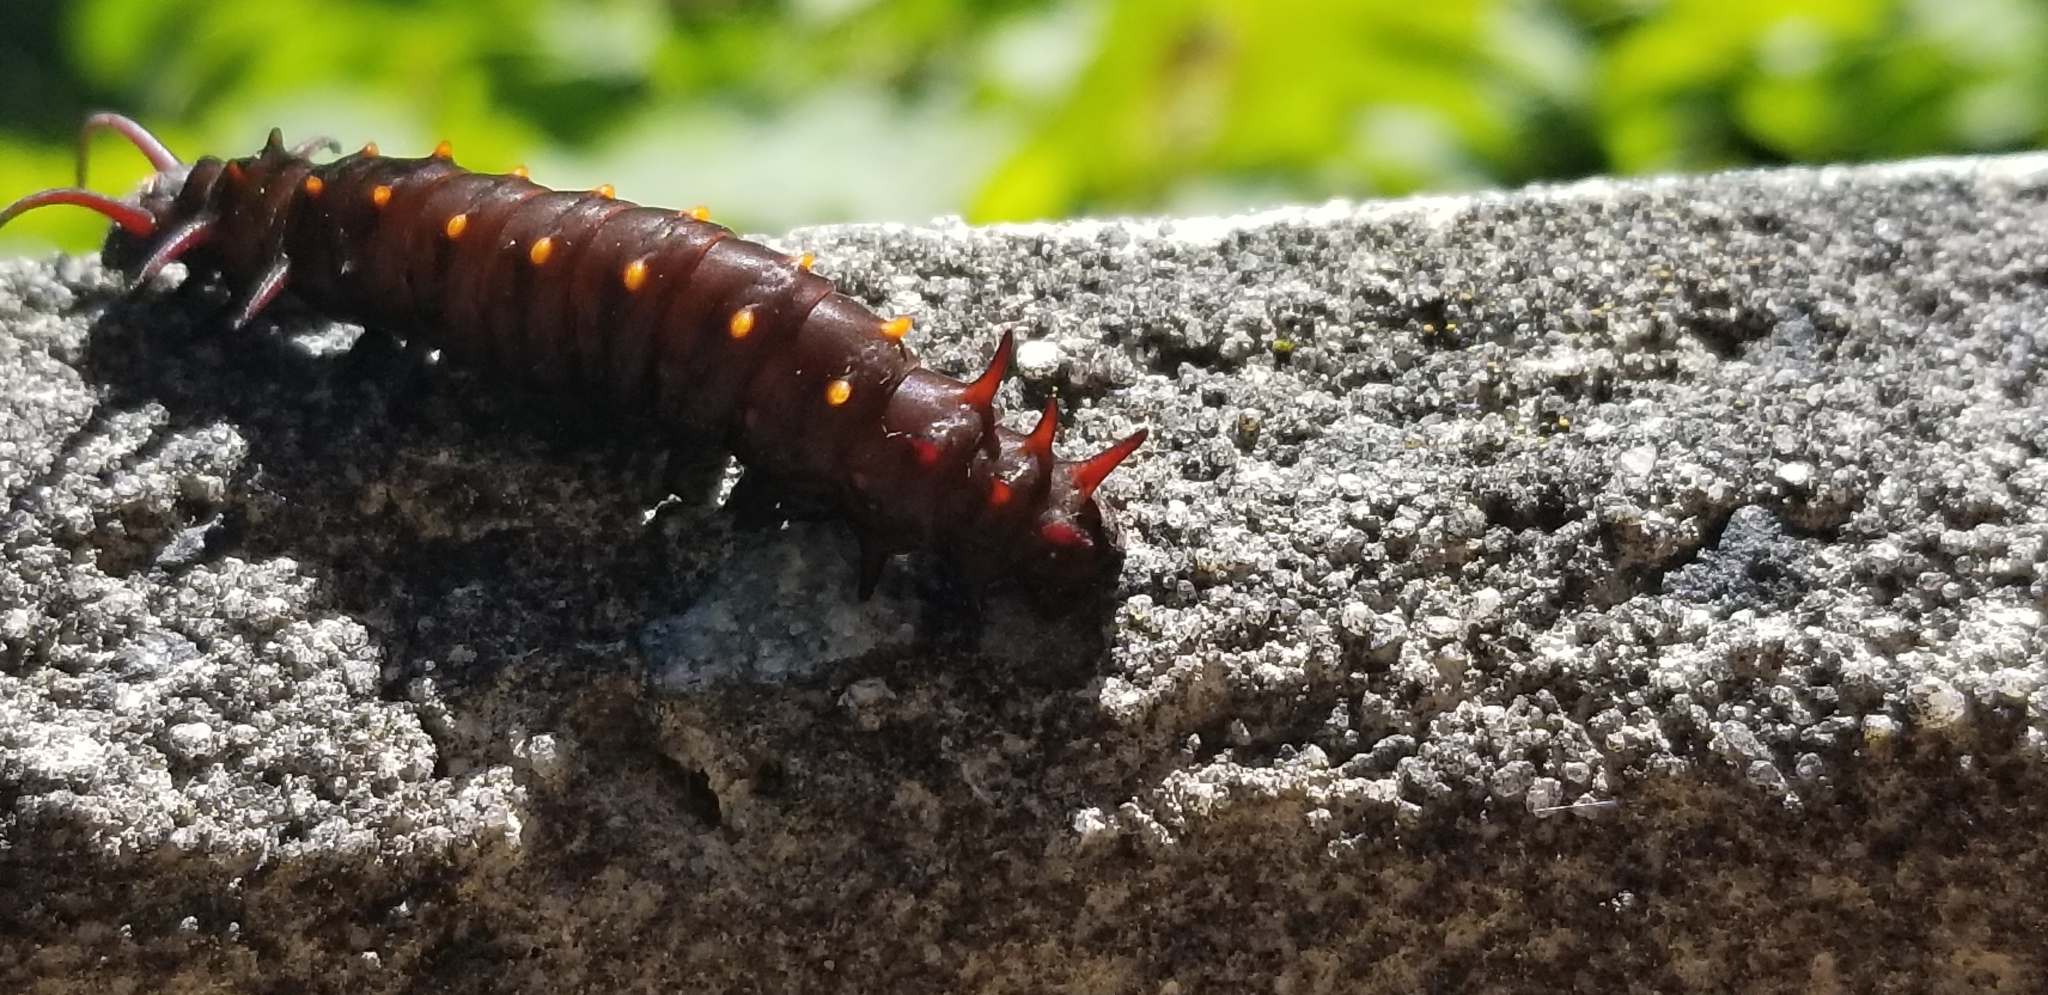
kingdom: Animalia
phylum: Arthropoda
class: Insecta
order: Lepidoptera
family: Papilionidae
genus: Battus
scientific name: Battus philenor
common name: Pipevine swallowtail
